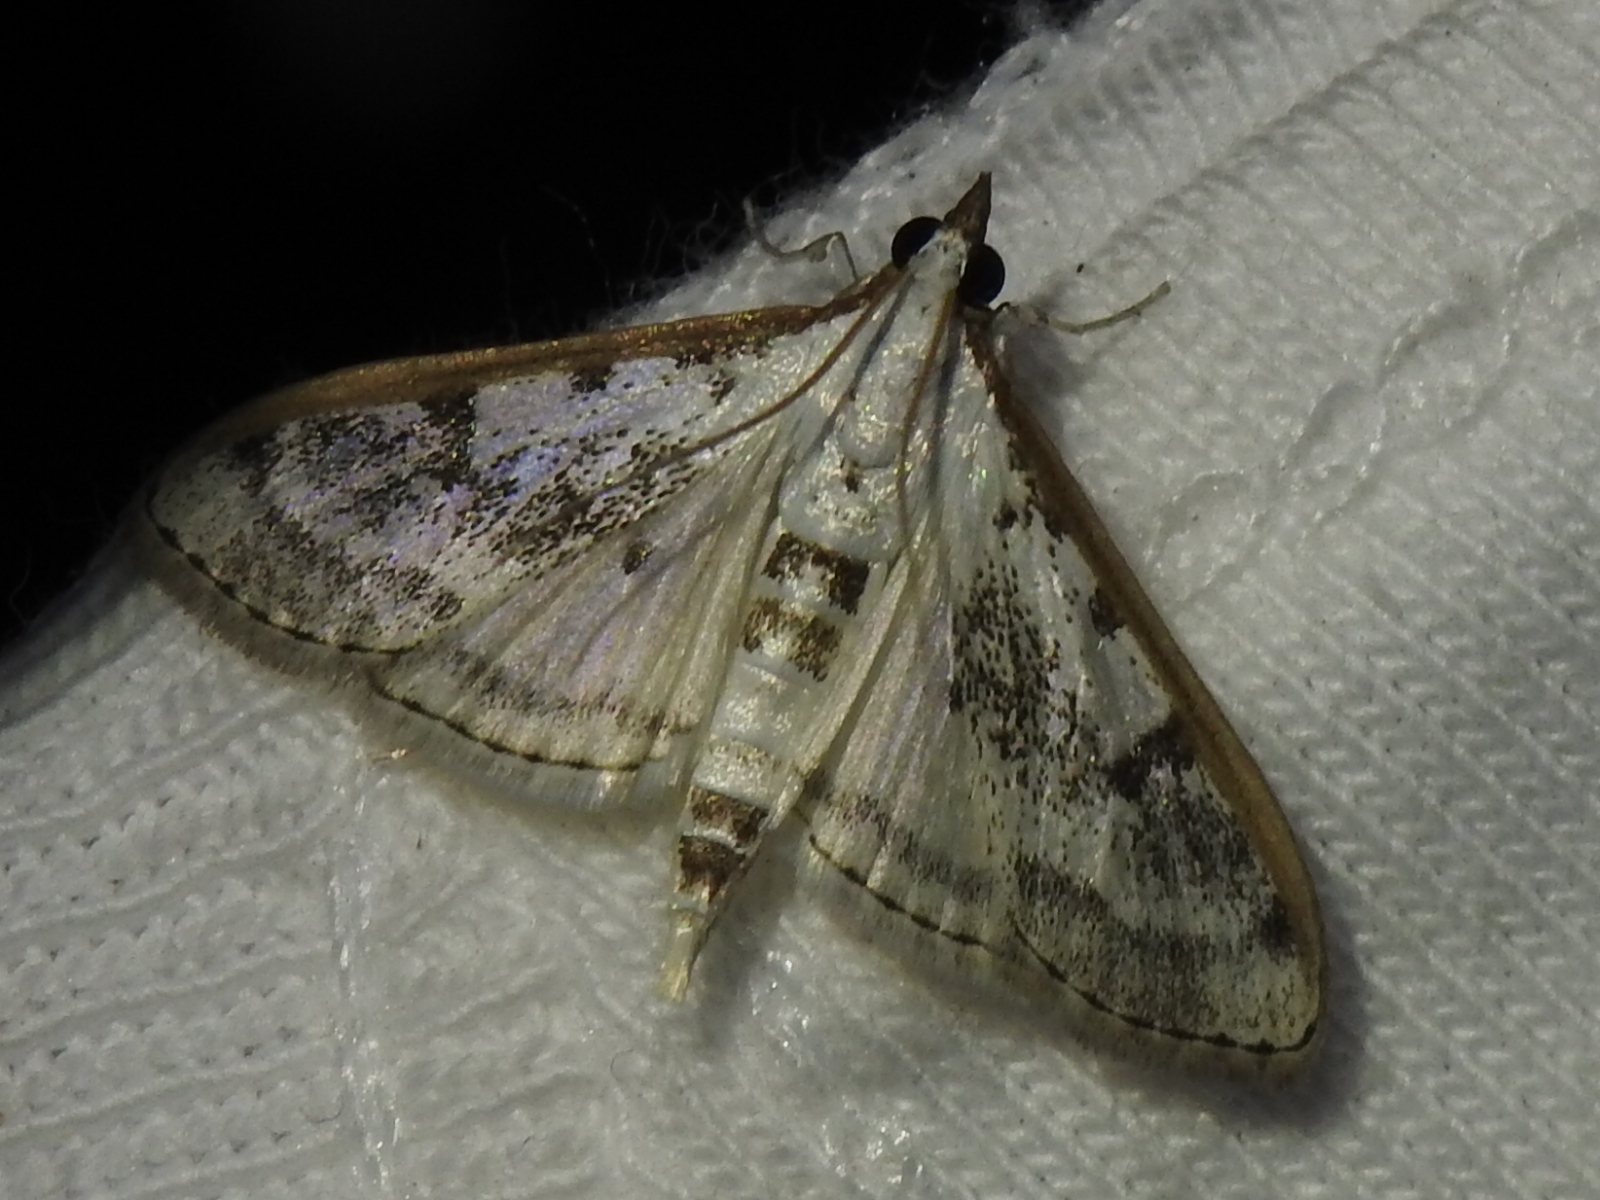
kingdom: Animalia
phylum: Arthropoda
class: Insecta
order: Lepidoptera
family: Crambidae
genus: Palpita
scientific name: Palpita gracilalis
